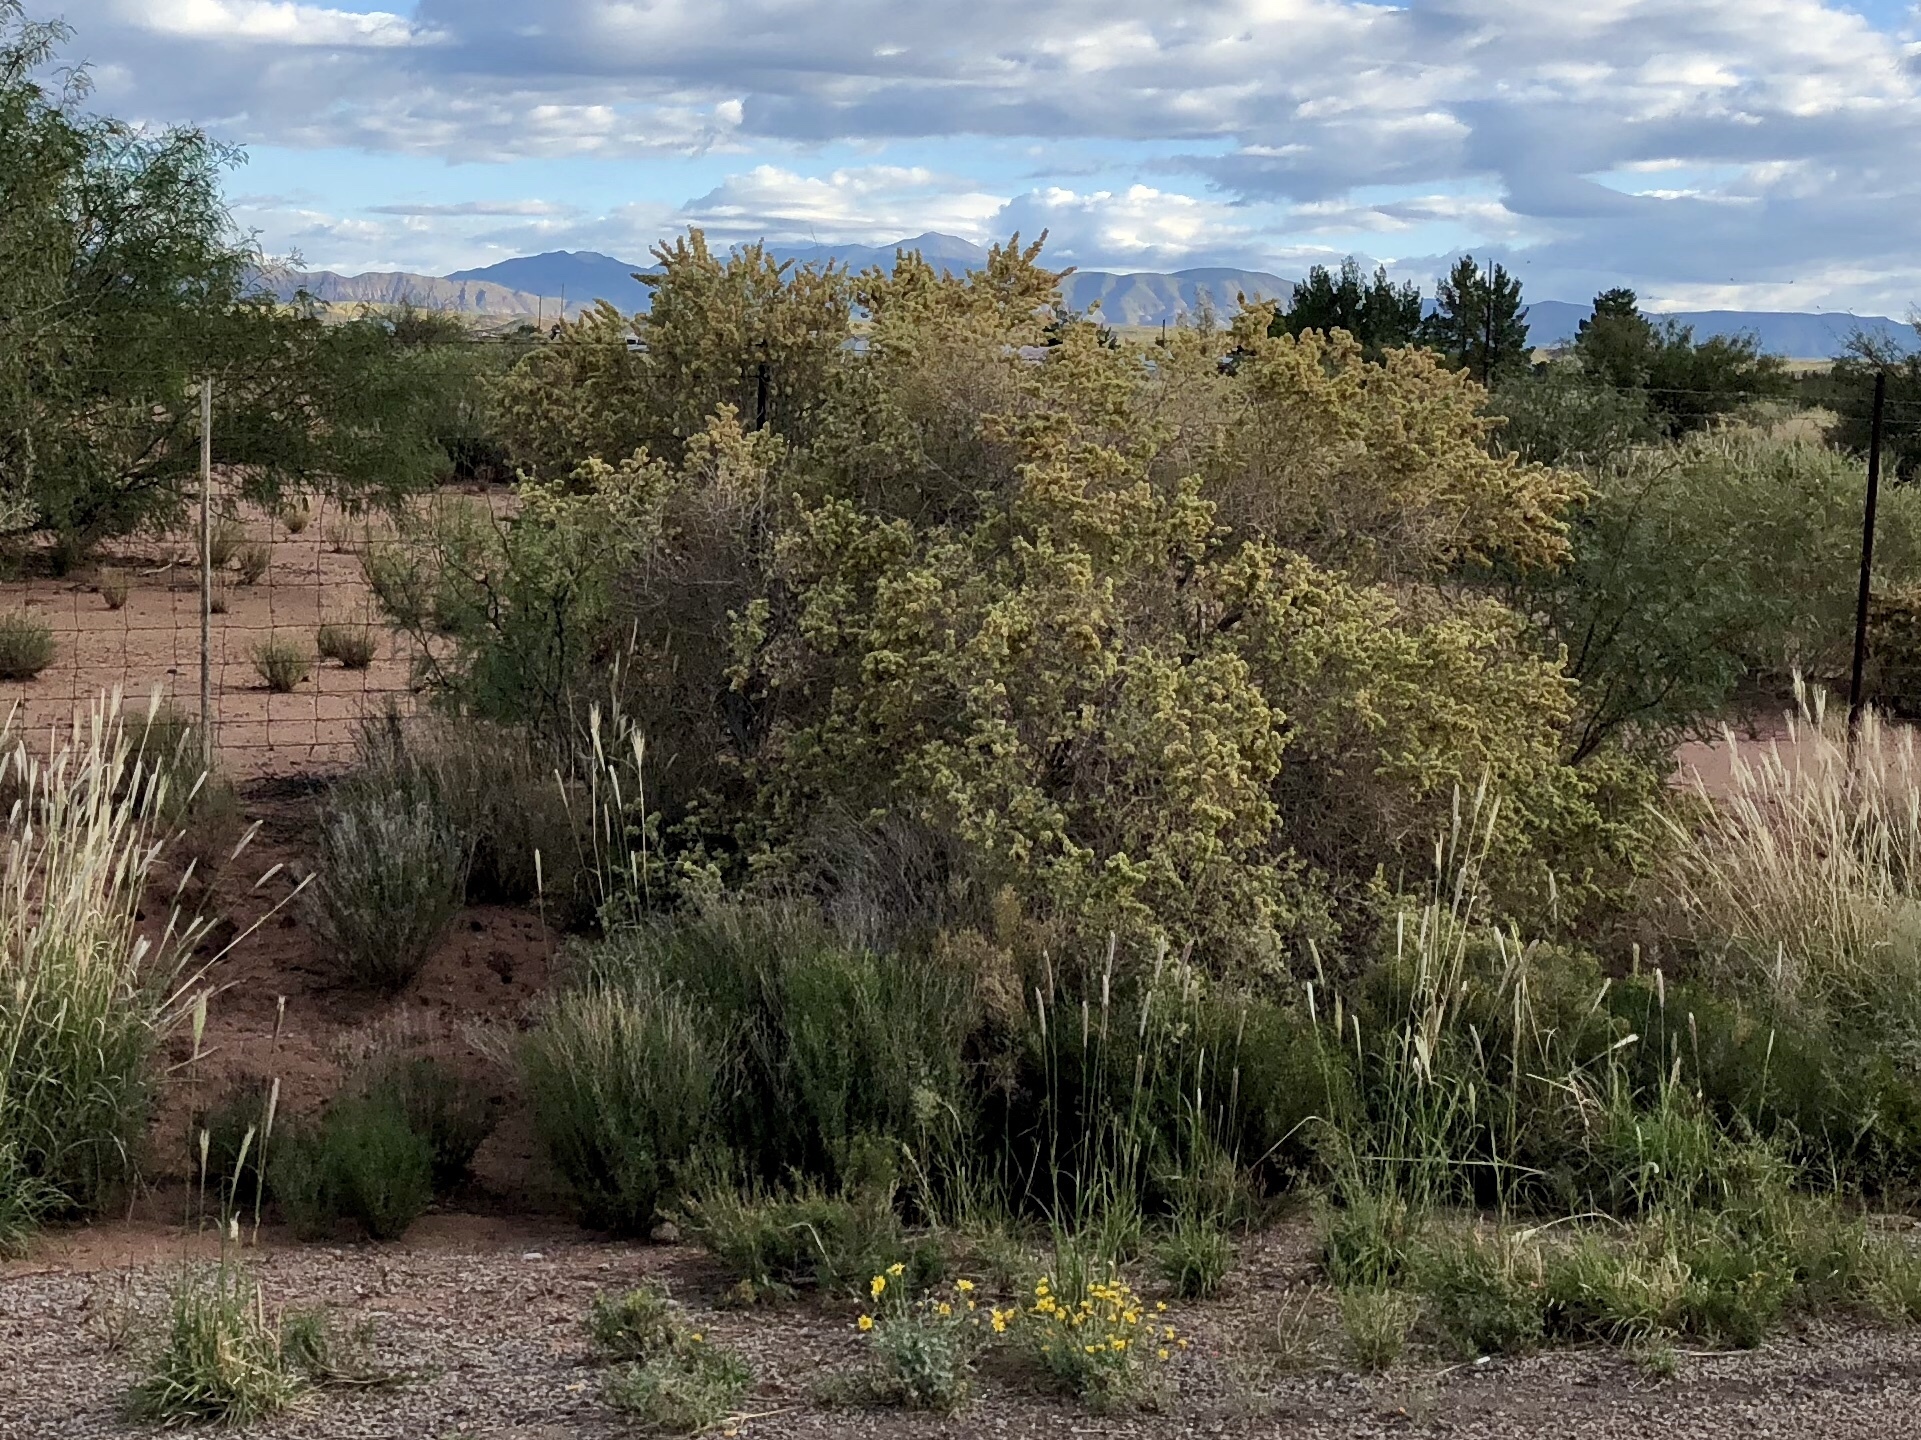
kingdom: Plantae
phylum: Tracheophyta
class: Magnoliopsida
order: Caryophyllales
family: Amaranthaceae
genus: Atriplex
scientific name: Atriplex canescens
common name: Four-wing saltbush
